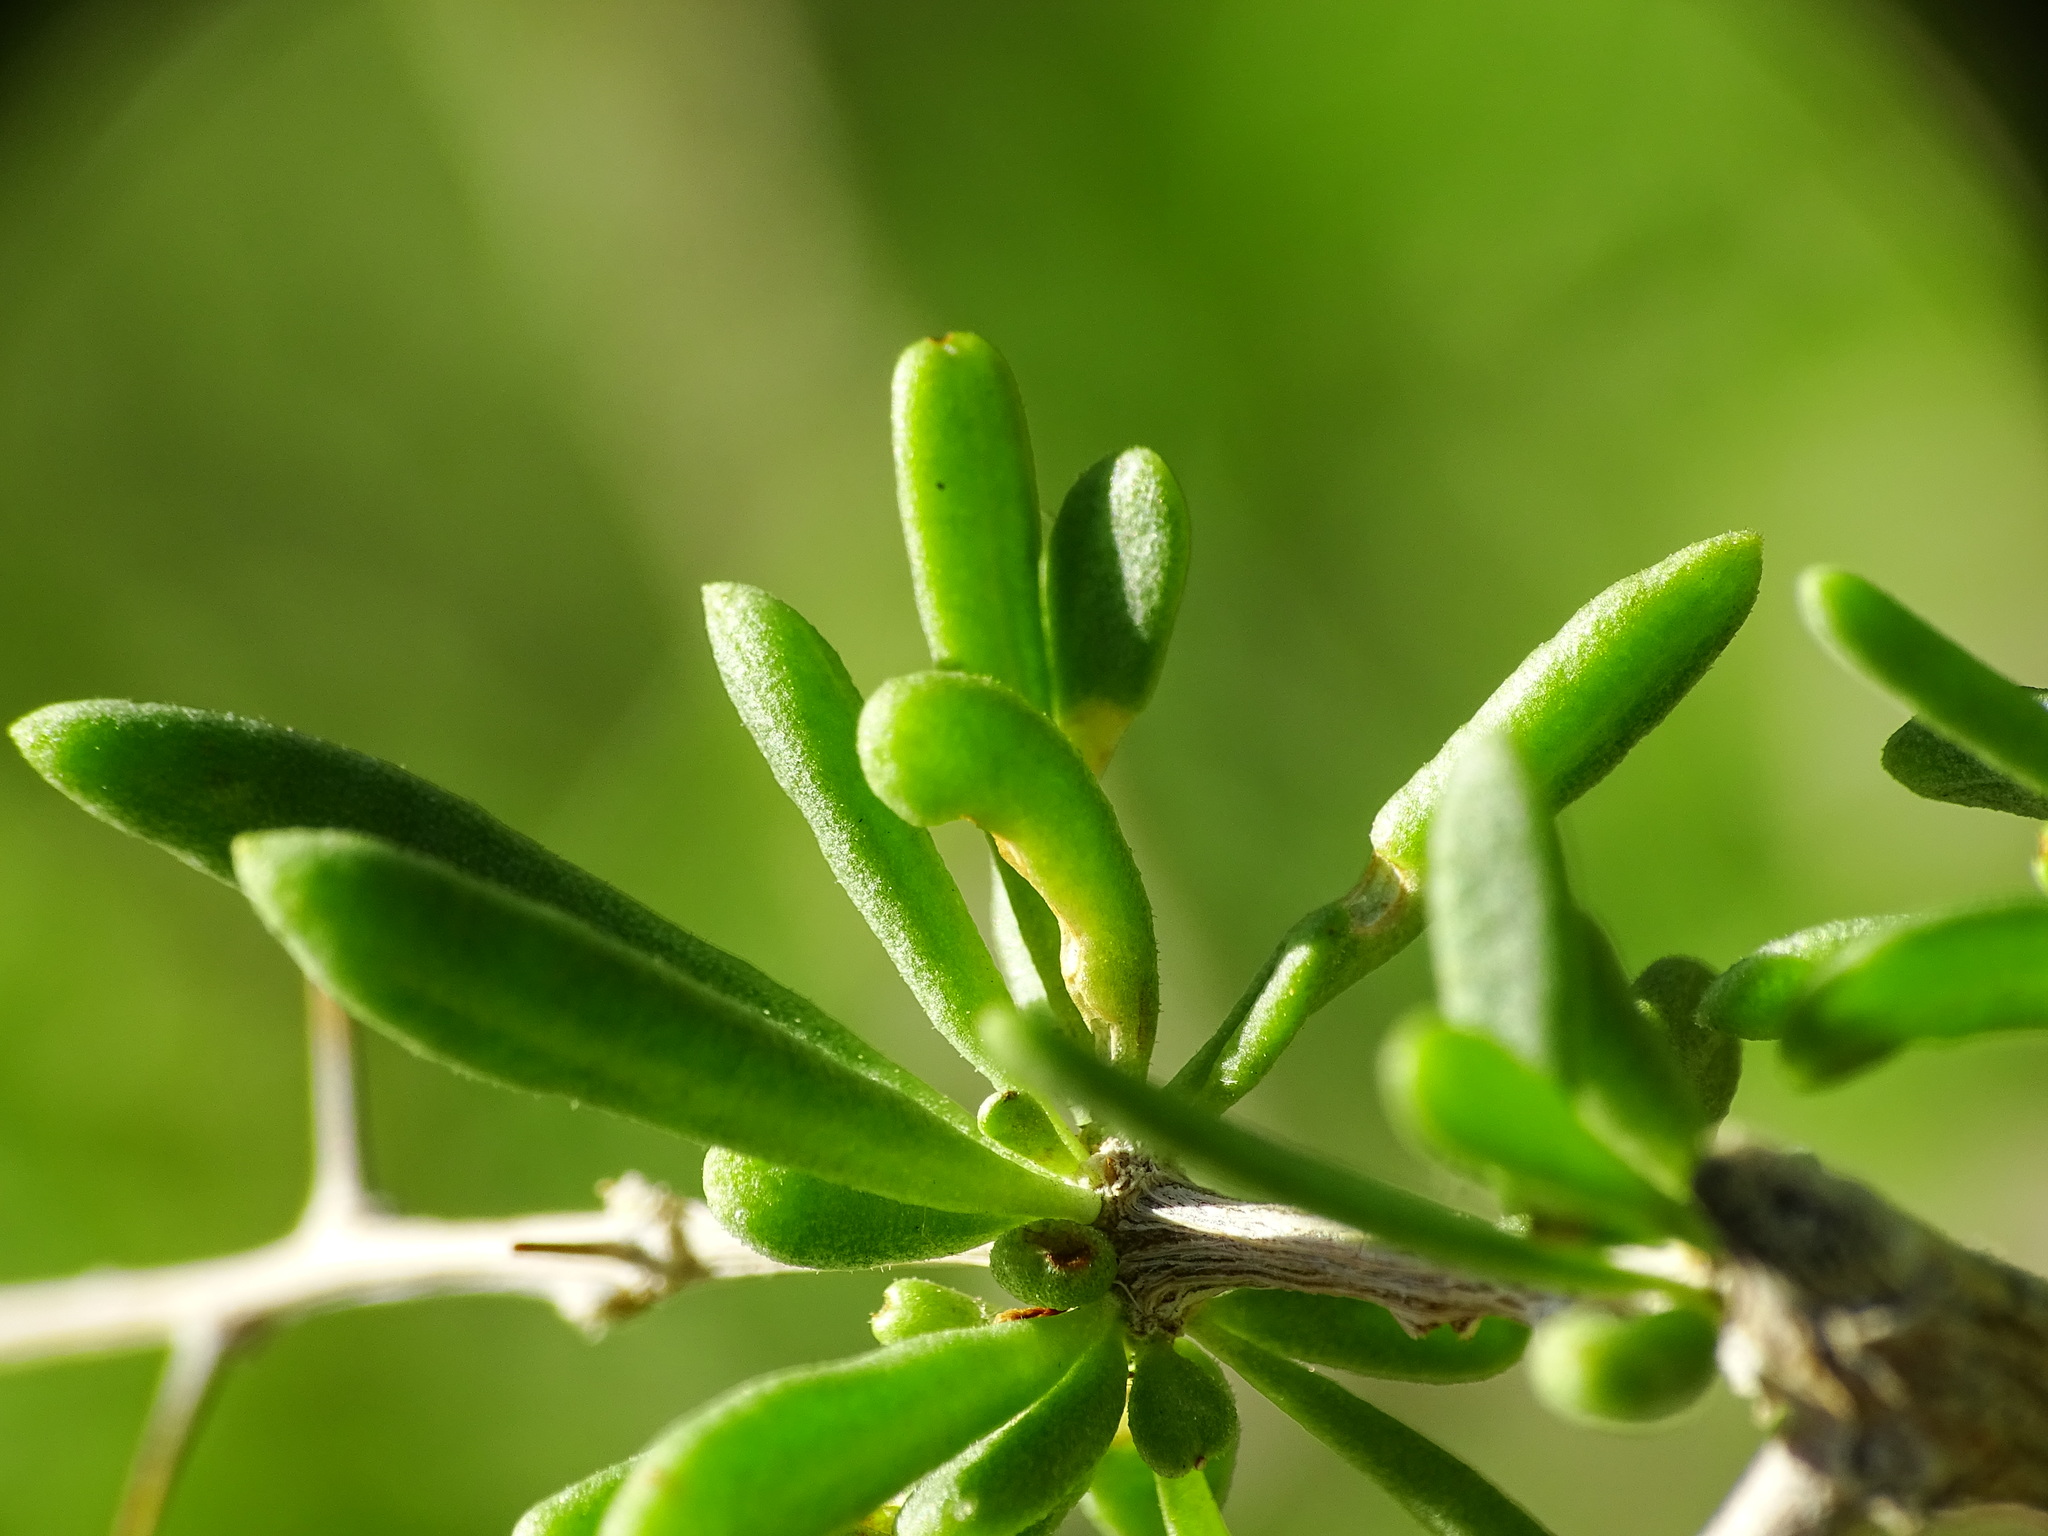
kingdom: Plantae
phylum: Tracheophyta
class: Magnoliopsida
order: Solanales
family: Solanaceae
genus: Lycium
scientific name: Lycium andersonii
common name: Water-jacket
